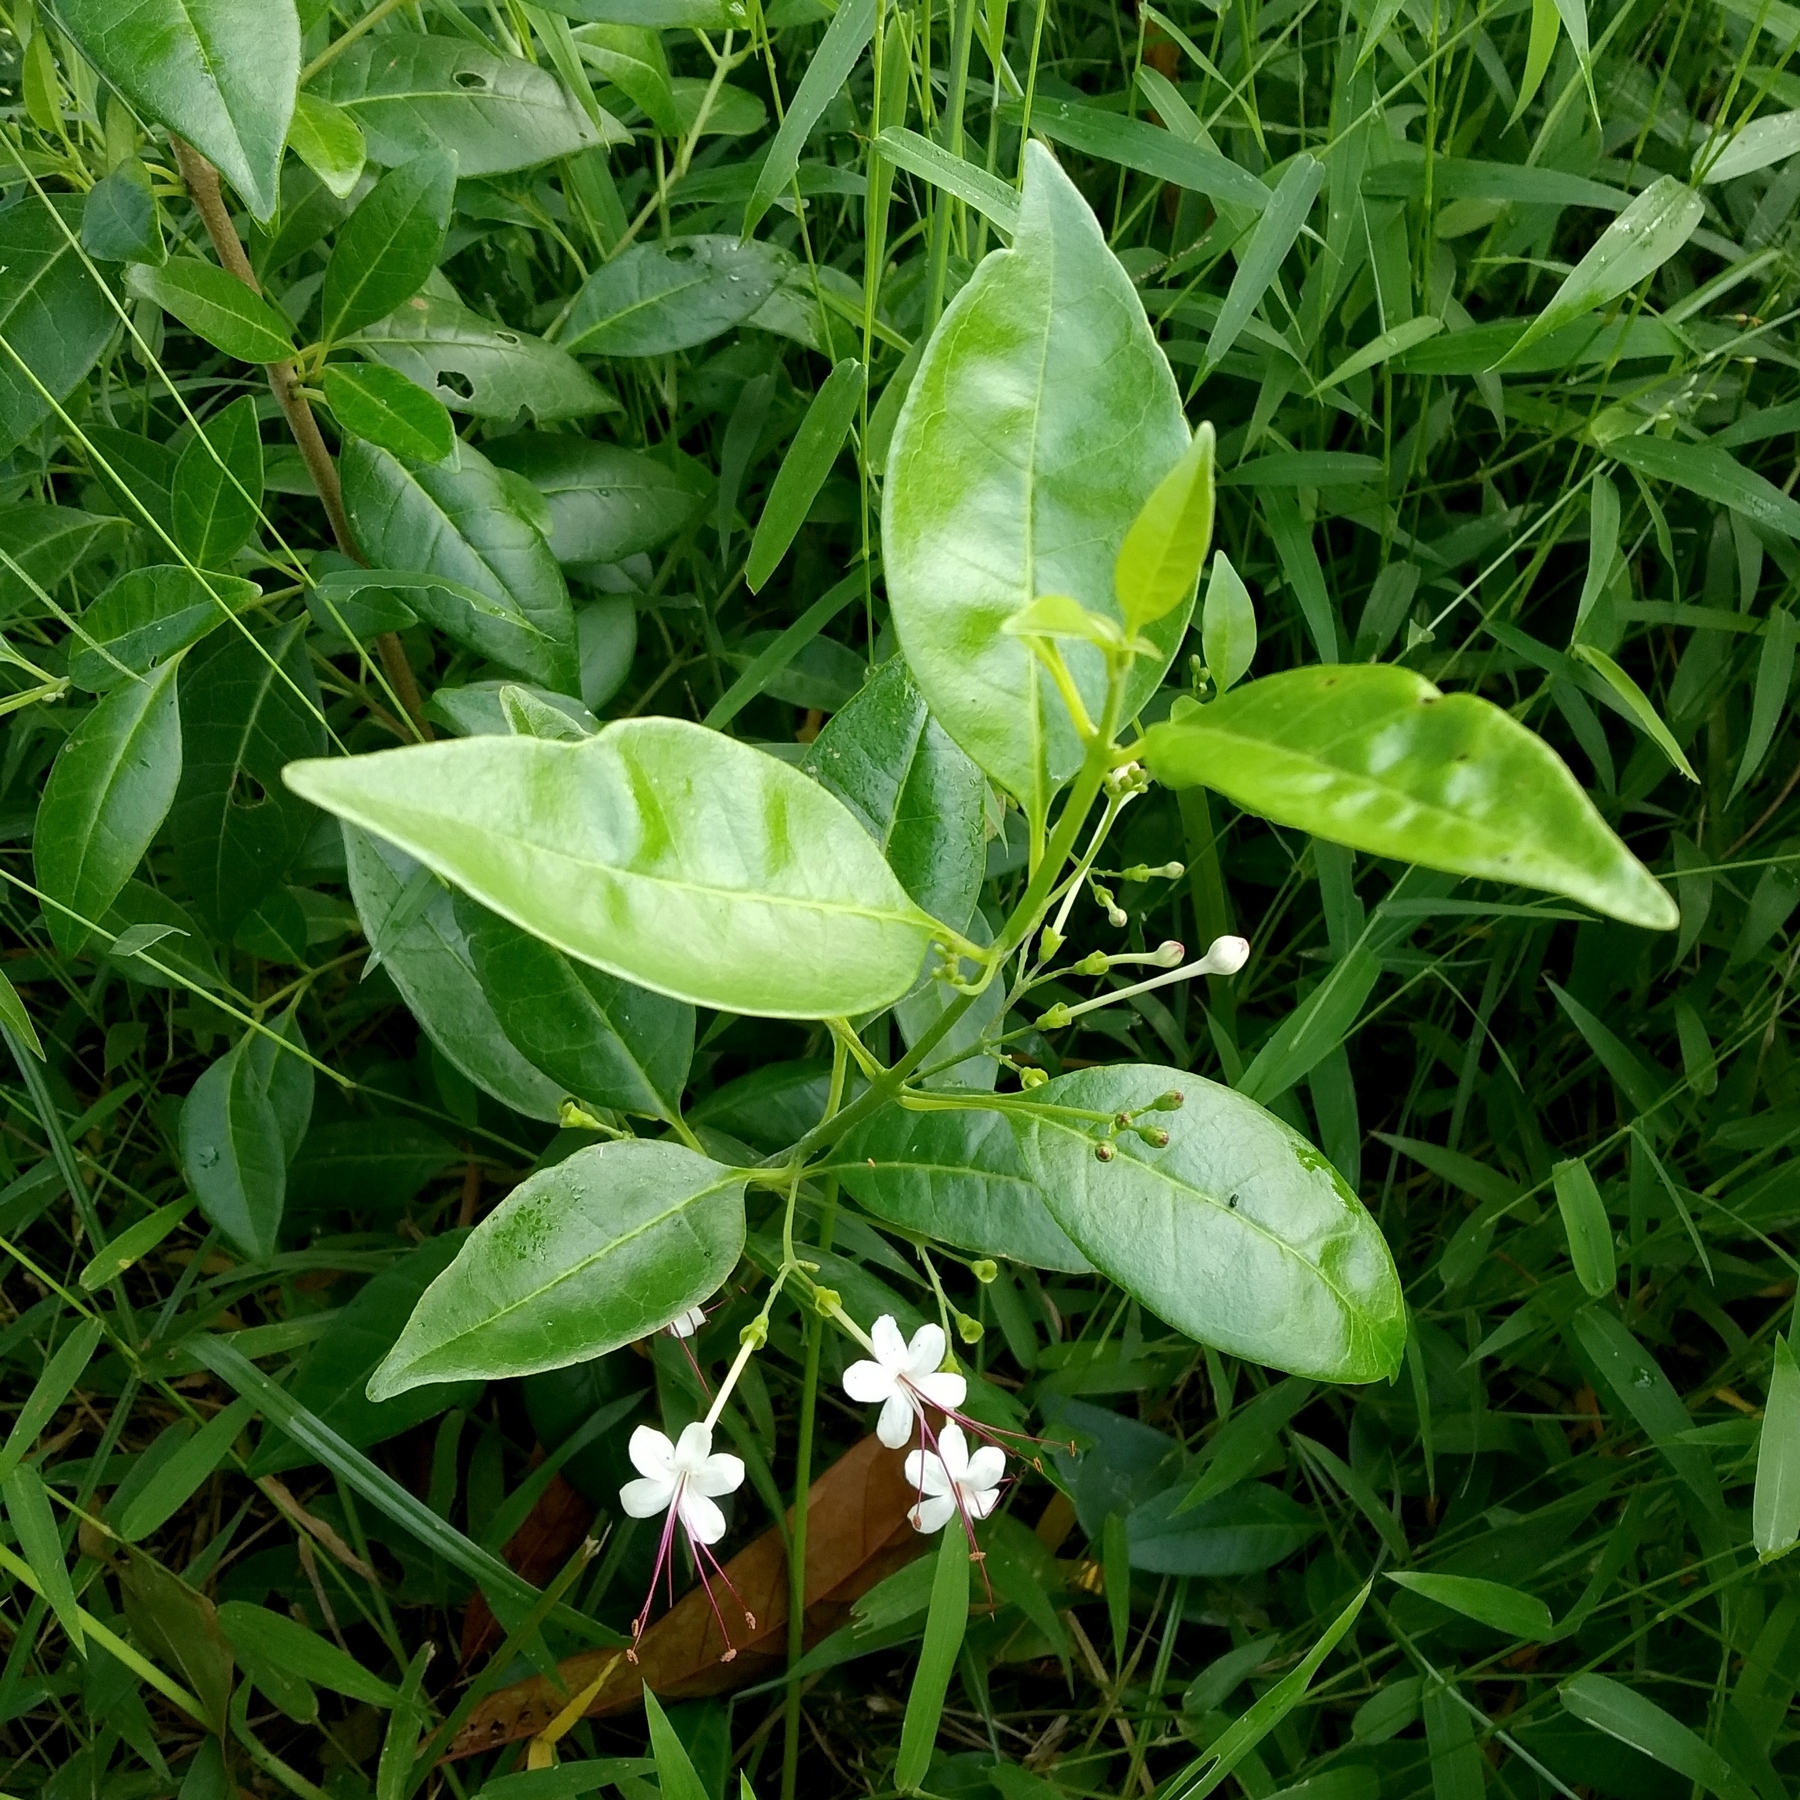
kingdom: Plantae
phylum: Tracheophyta
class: Magnoliopsida
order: Lamiales
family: Lamiaceae
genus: Volkameria
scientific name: Volkameria inermis
